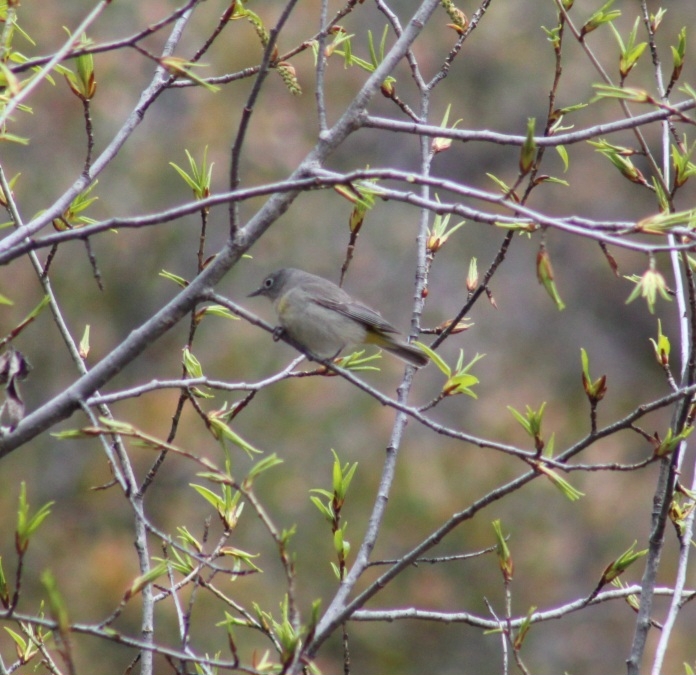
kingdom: Animalia
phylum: Chordata
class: Aves
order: Passeriformes
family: Parulidae
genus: Leiothlypis
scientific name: Leiothlypis virginiae
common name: Virginia's warbler
